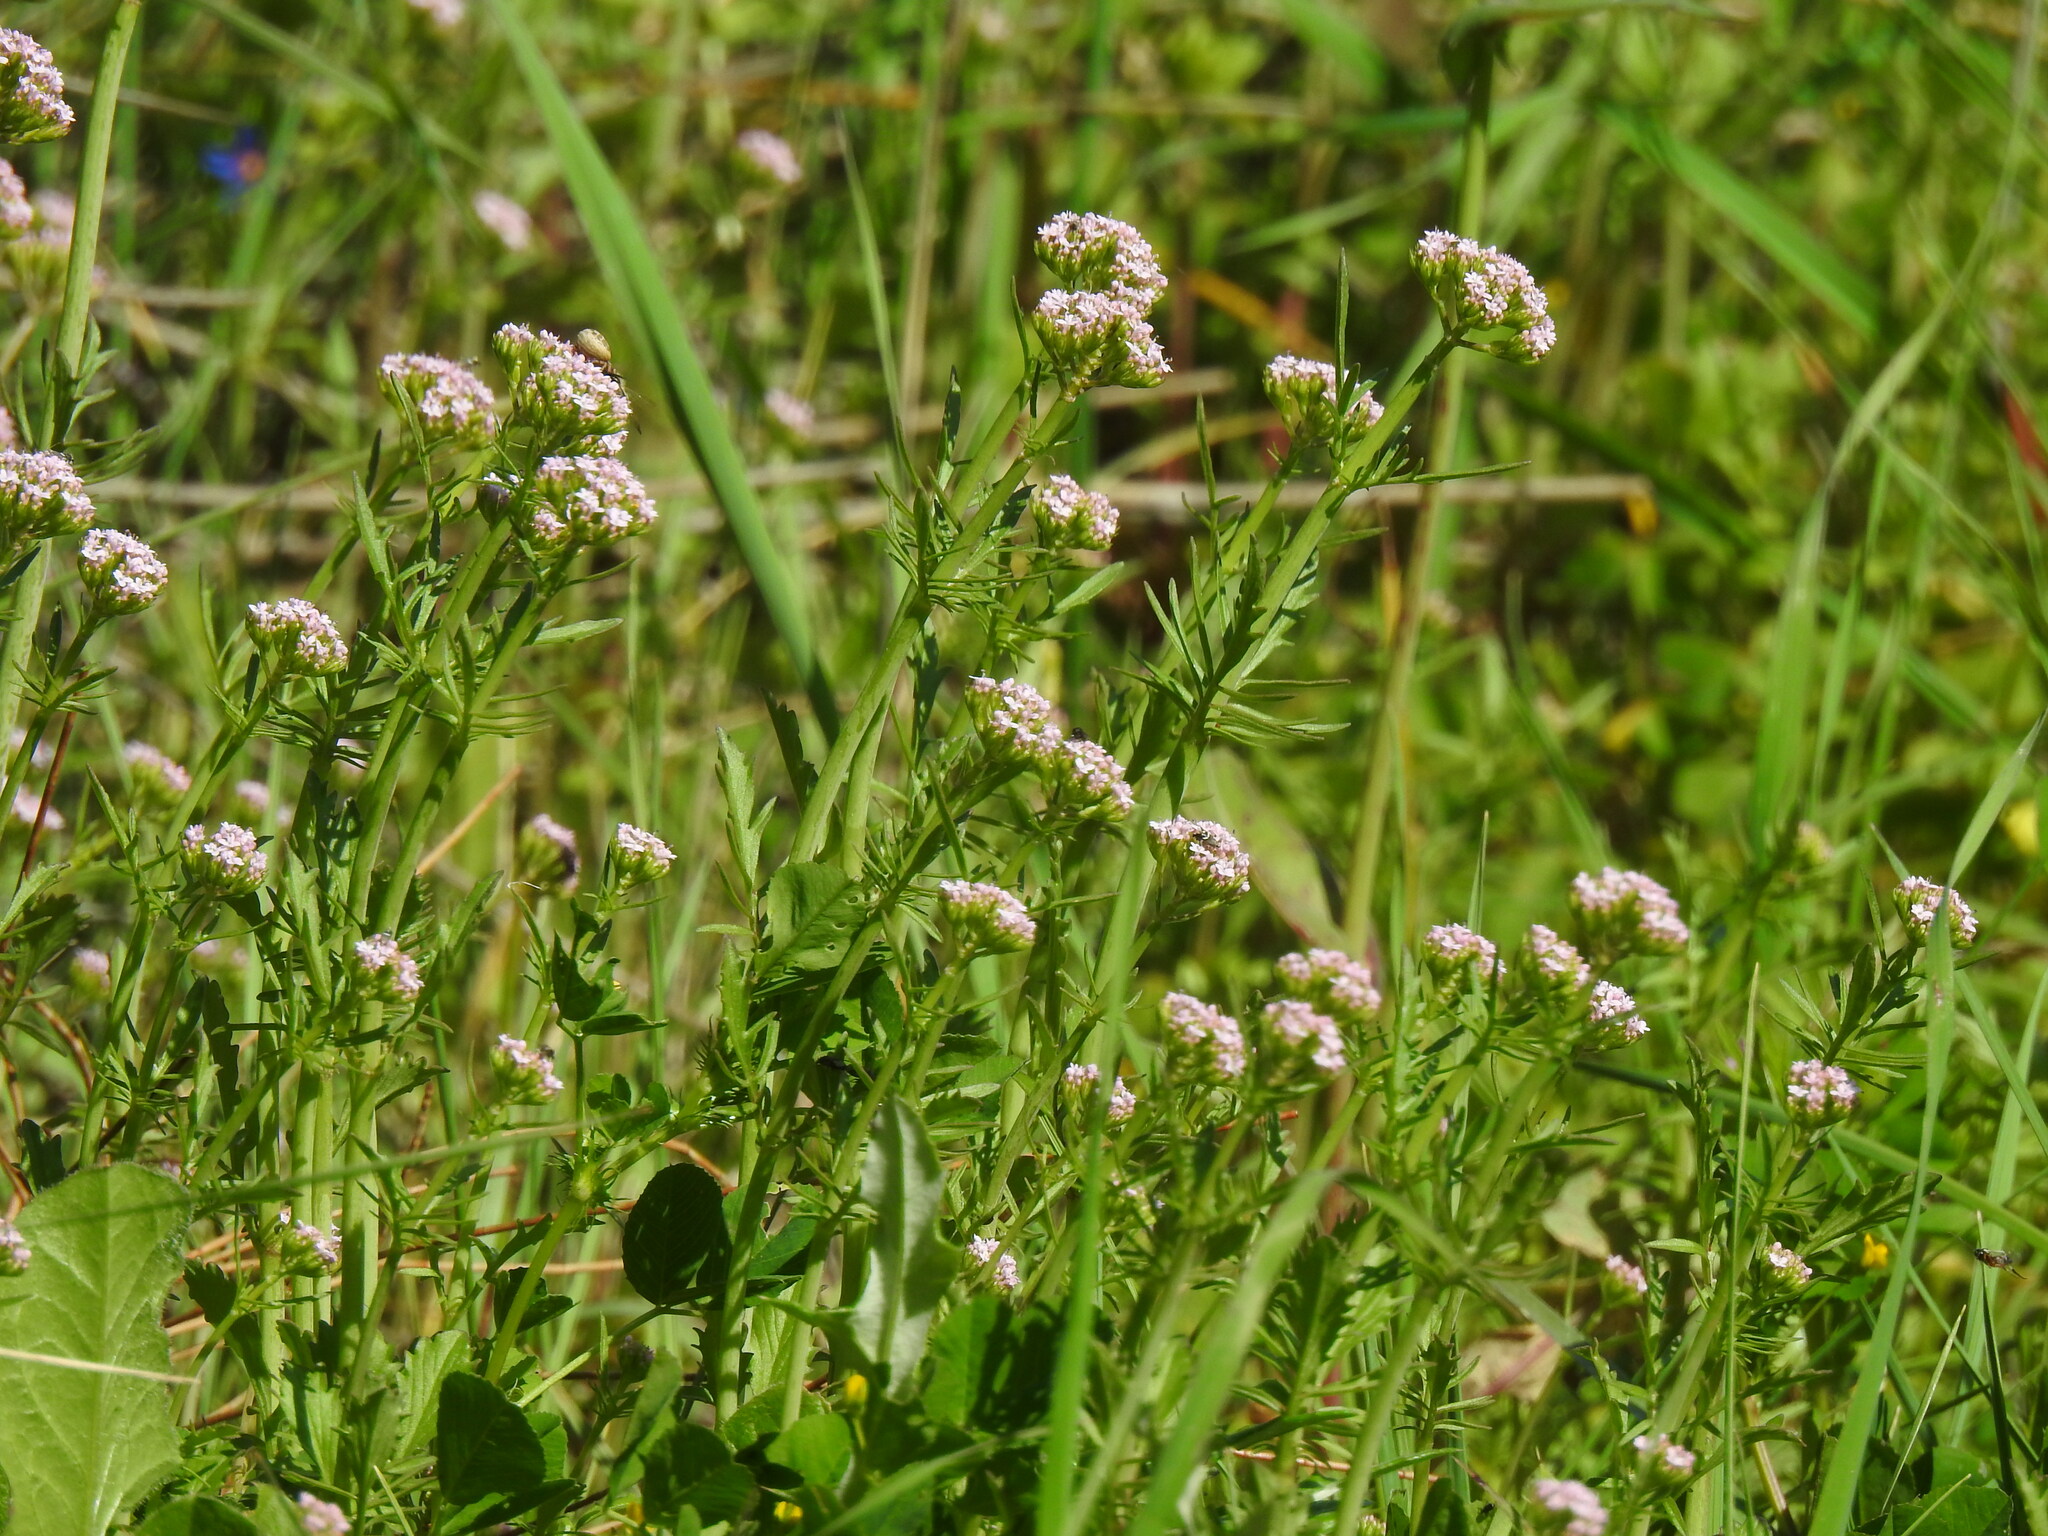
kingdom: Plantae
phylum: Tracheophyta
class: Magnoliopsida
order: Dipsacales
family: Caprifoliaceae
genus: Centranthus
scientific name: Centranthus calcitrapae
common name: Annual valerian
